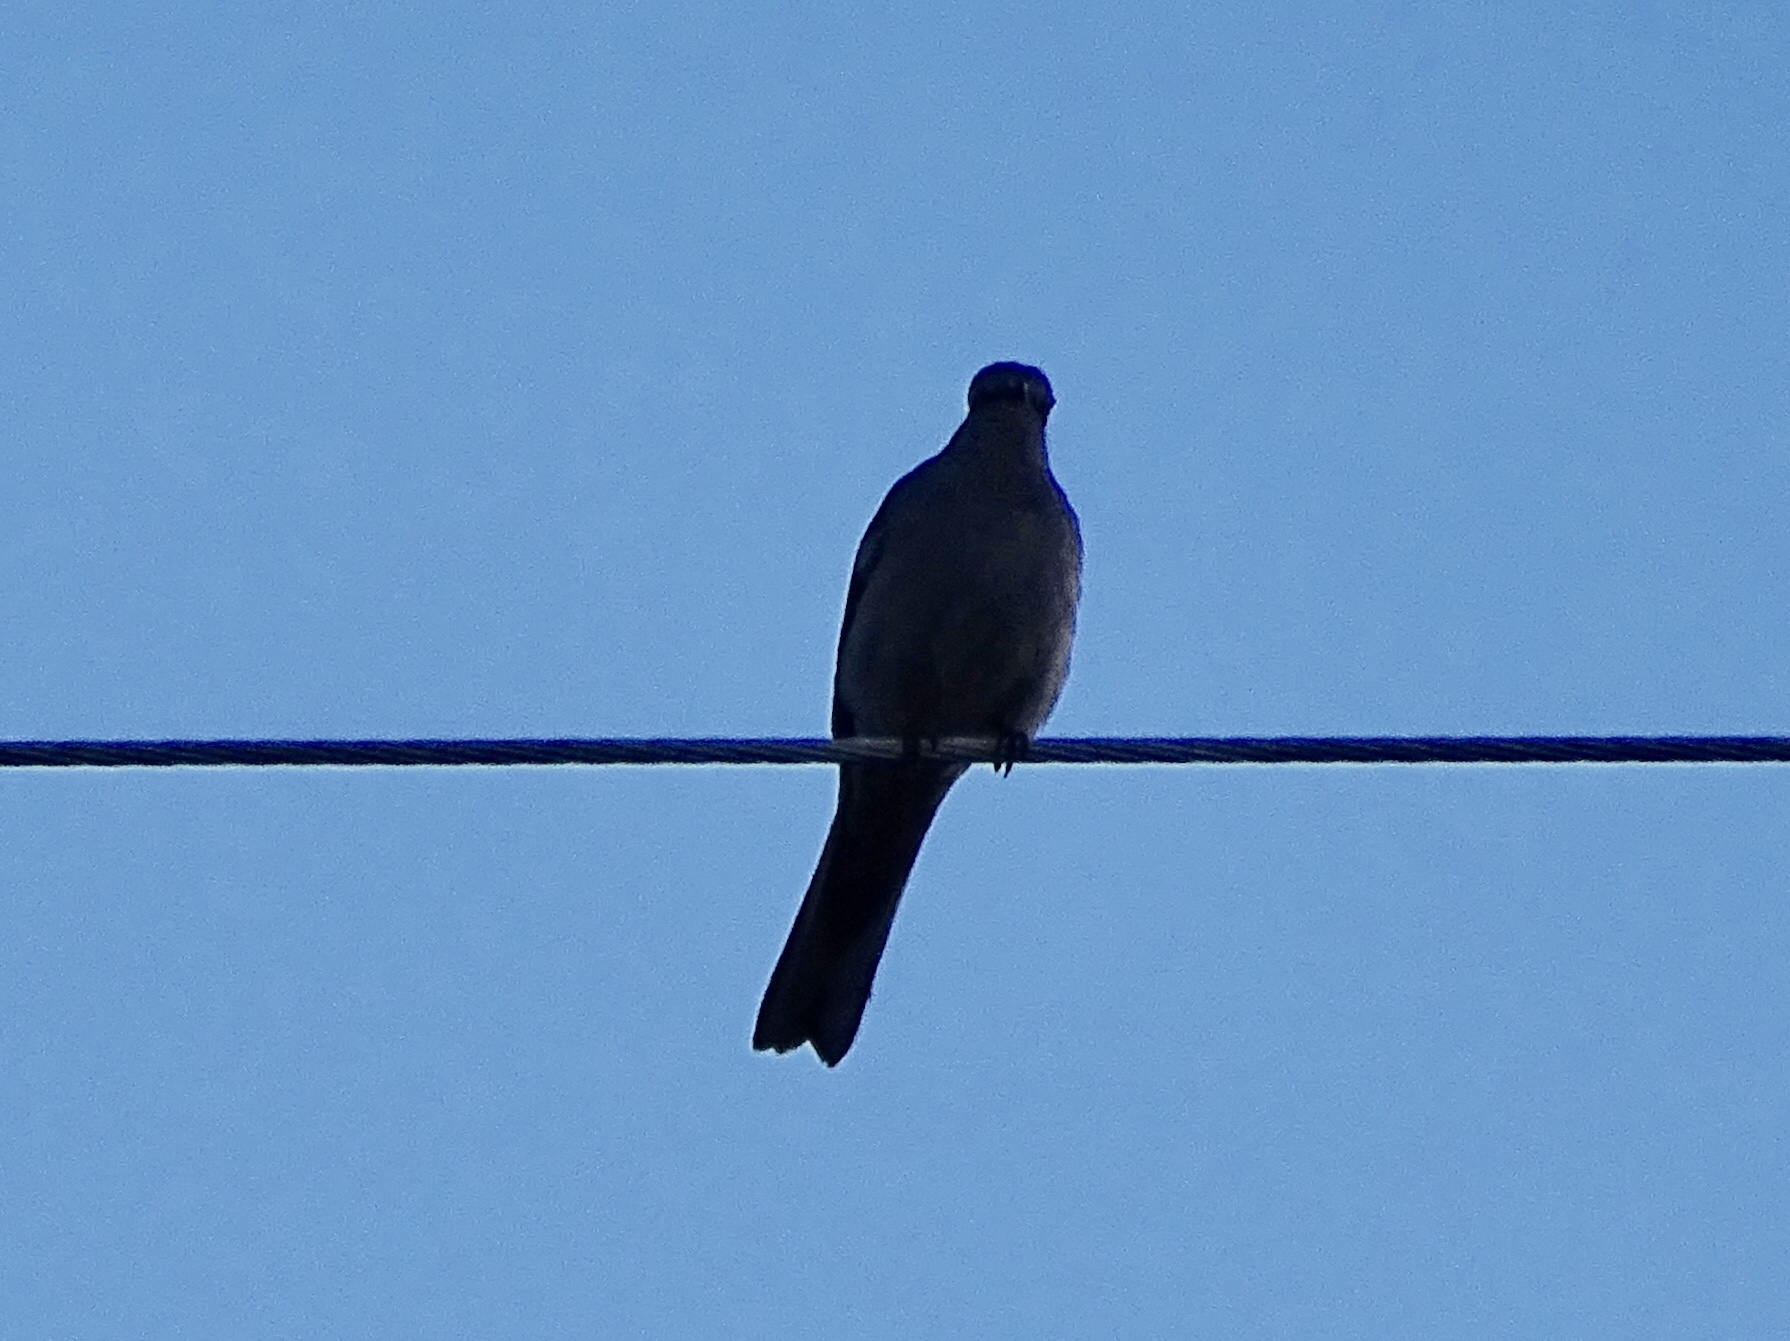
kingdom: Animalia
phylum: Chordata
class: Aves
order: Passeriformes
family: Turdidae
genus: Myadestes
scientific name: Myadestes townsendi
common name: Townsend's solitaire
